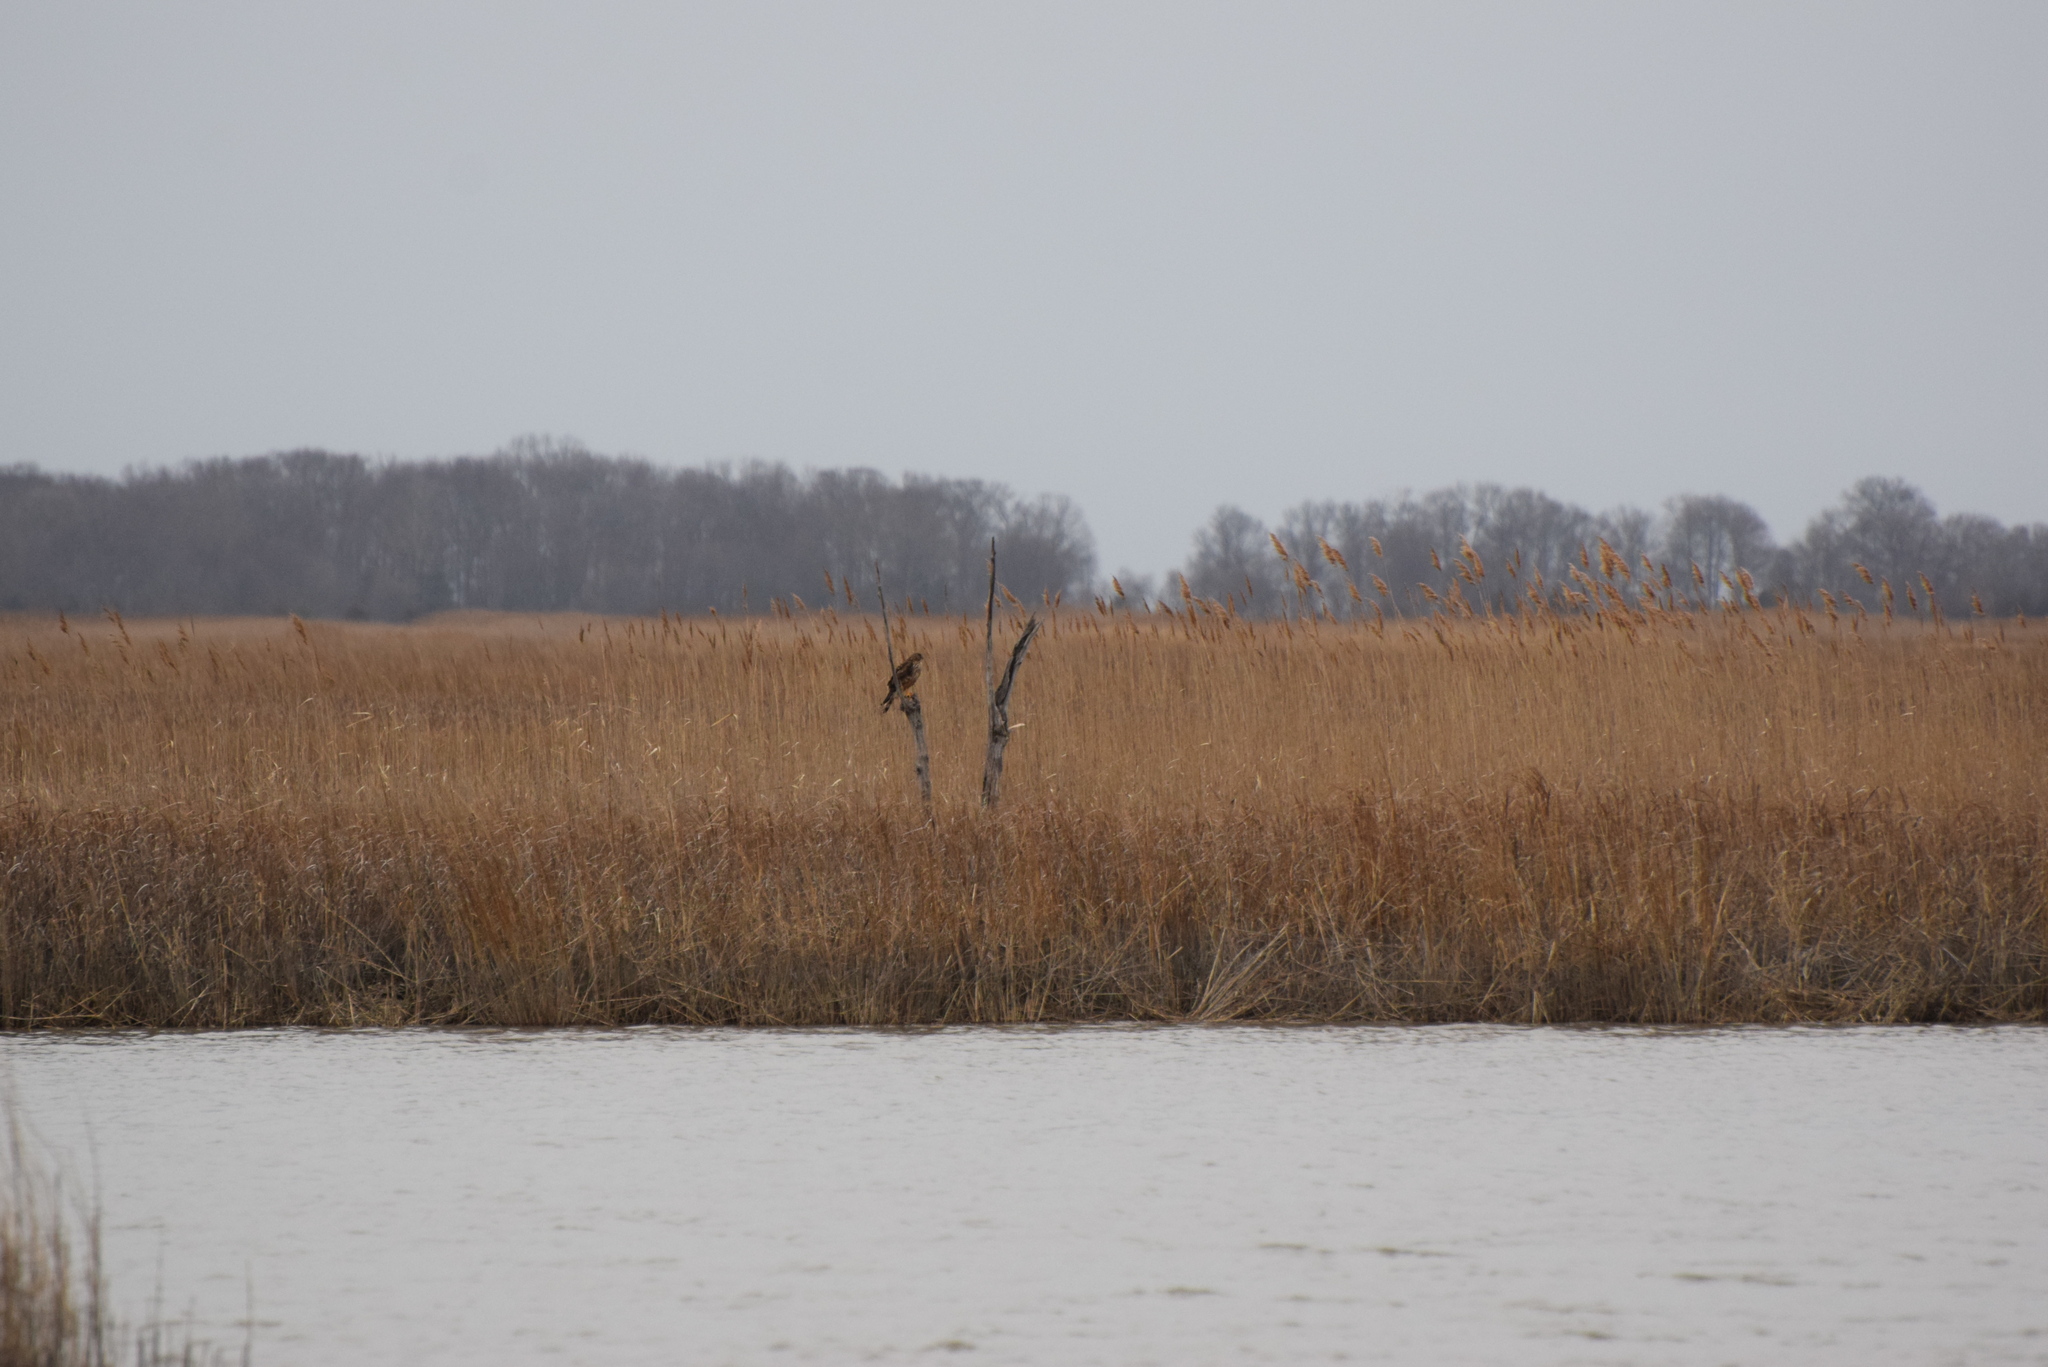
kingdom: Animalia
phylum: Chordata
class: Aves
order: Accipitriformes
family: Accipitridae
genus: Circus
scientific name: Circus cyaneus
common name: Hen harrier
